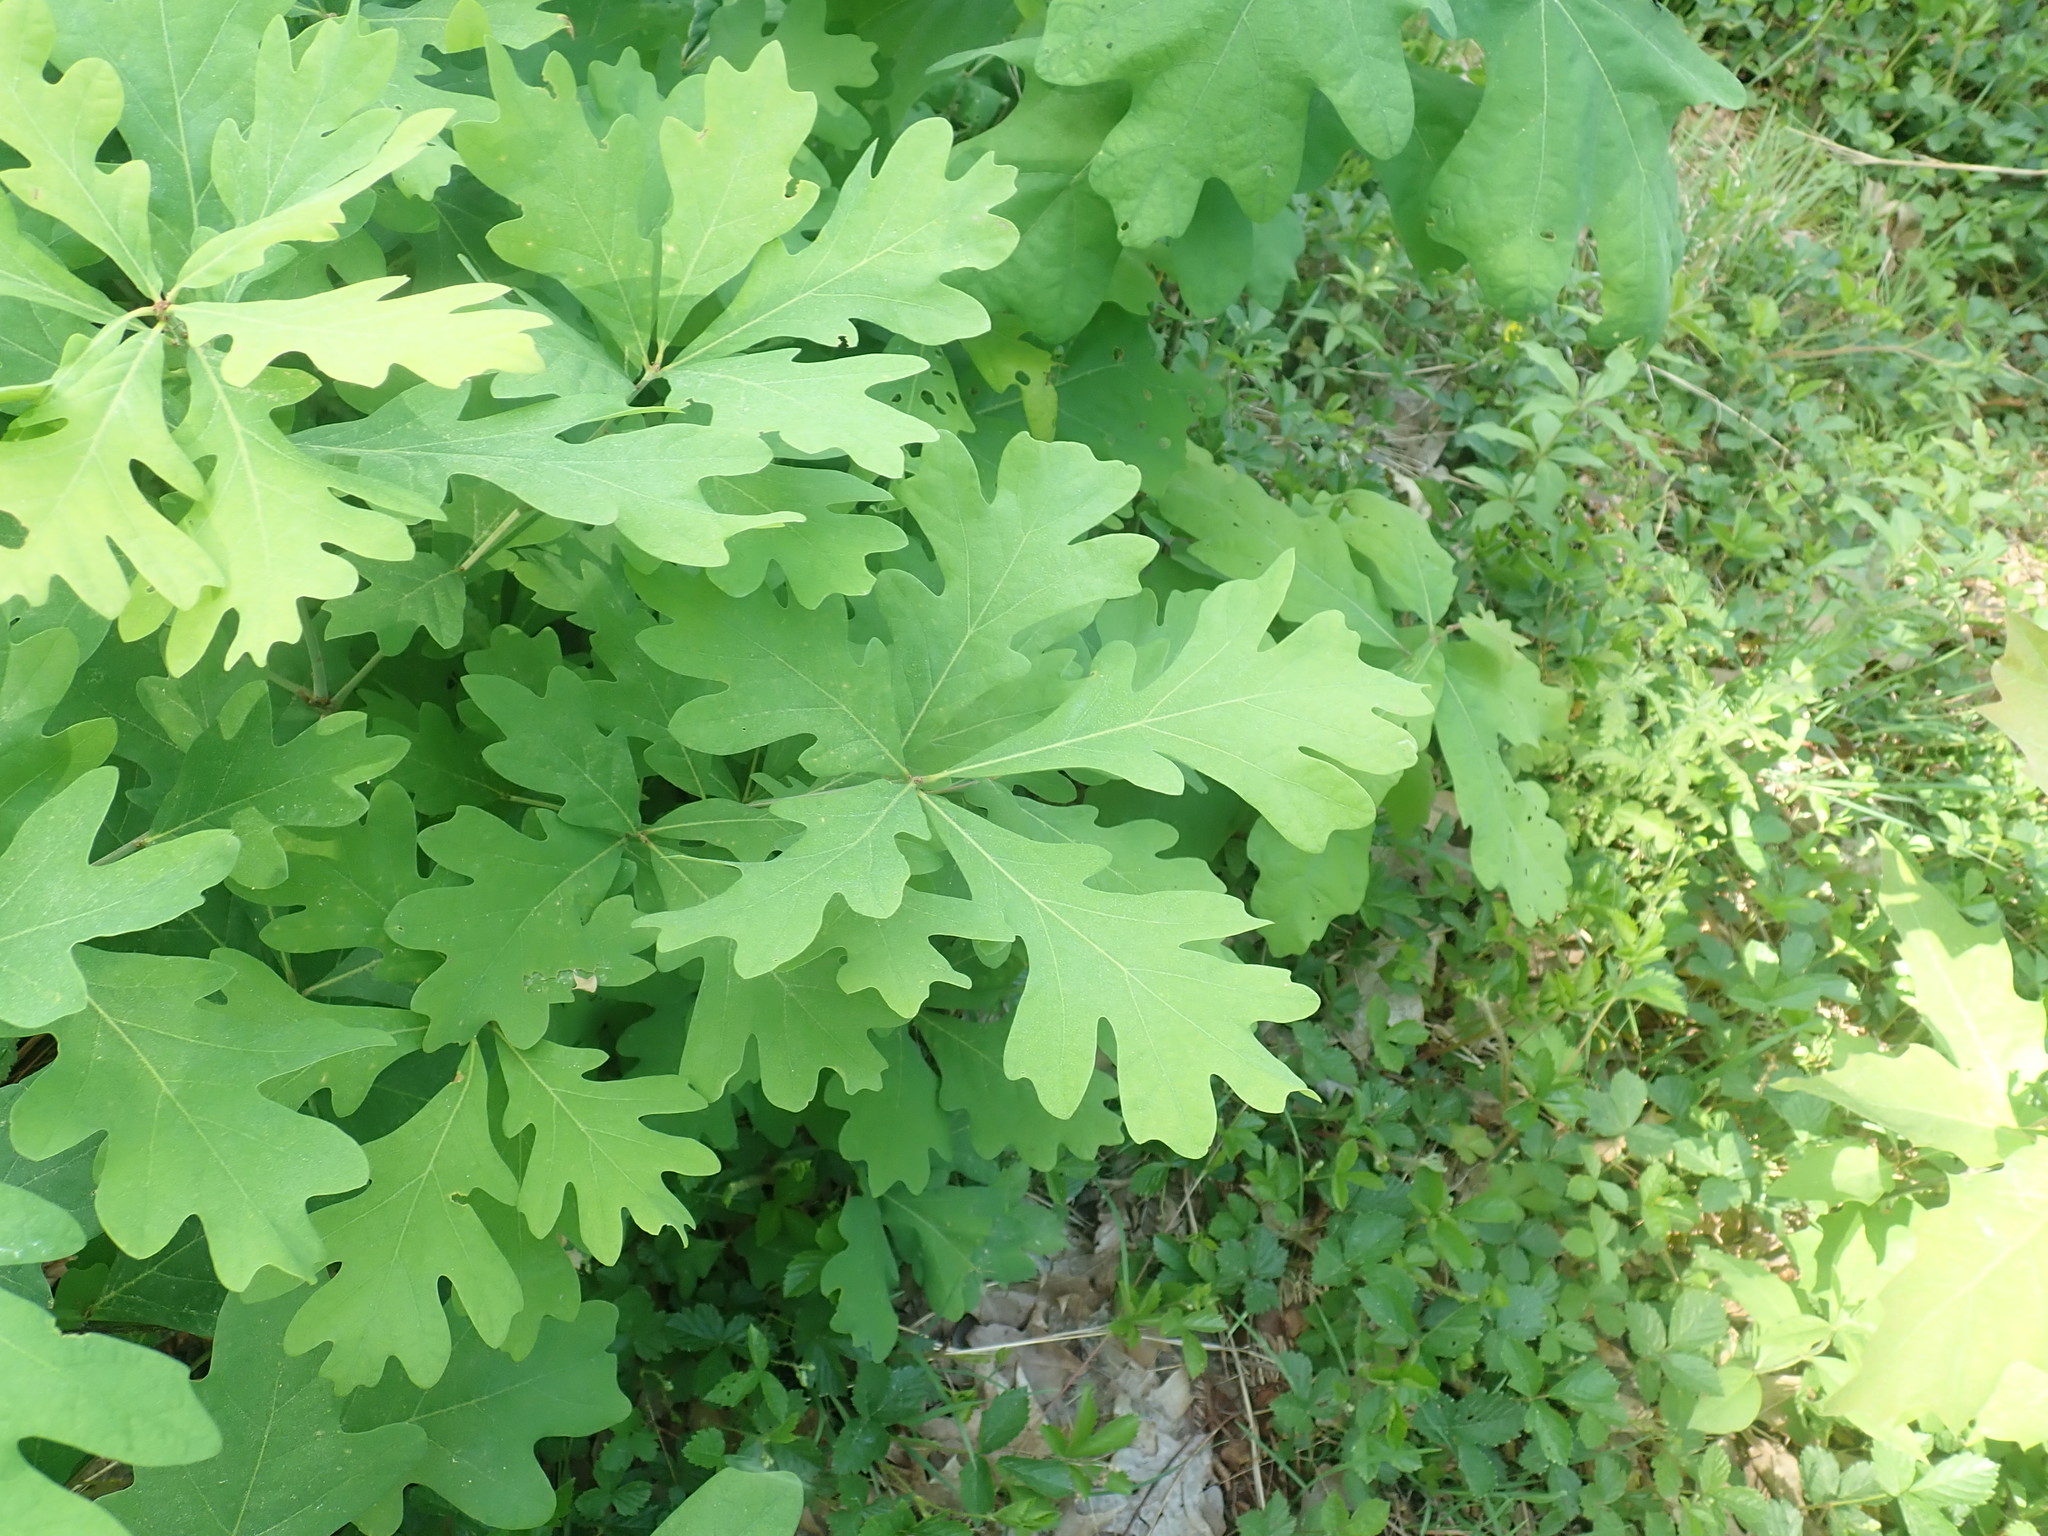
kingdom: Plantae
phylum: Tracheophyta
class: Magnoliopsida
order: Fagales
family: Fagaceae
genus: Quercus
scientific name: Quercus alba
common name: White oak
